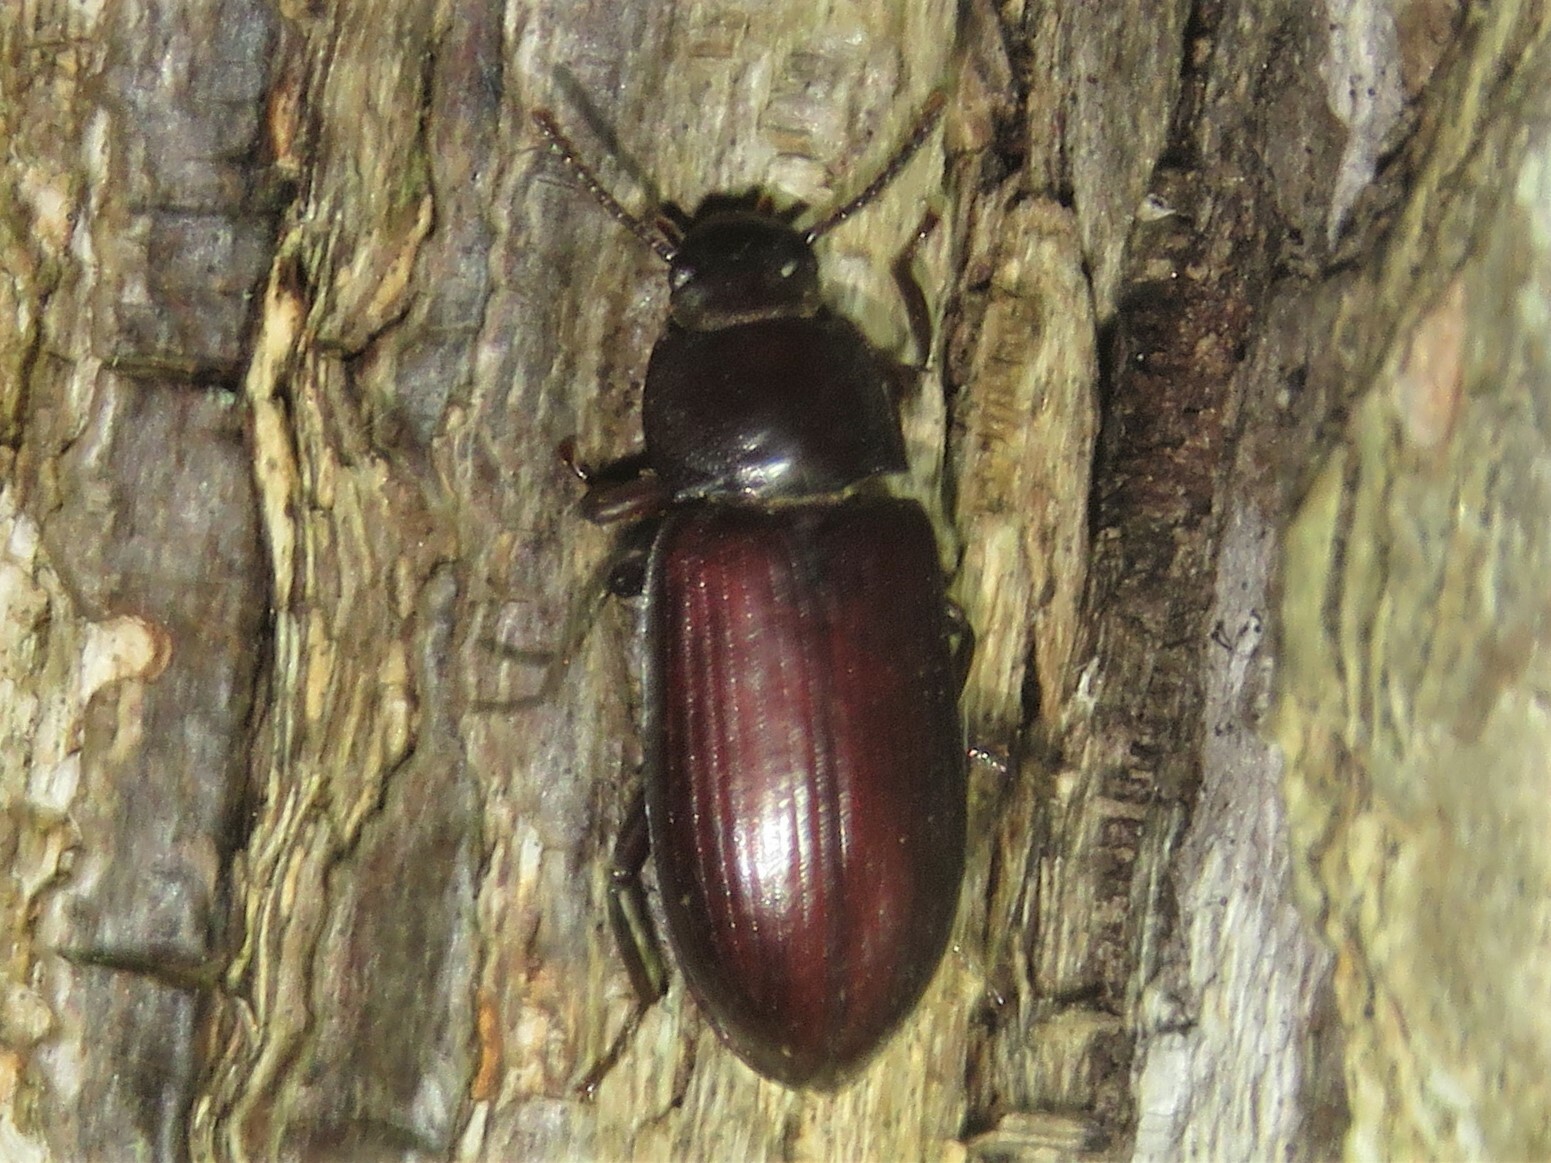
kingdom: Animalia
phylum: Arthropoda
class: Insecta
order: Coleoptera
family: Tenebrionidae
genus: Neatus
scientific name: Neatus tenebrioides
